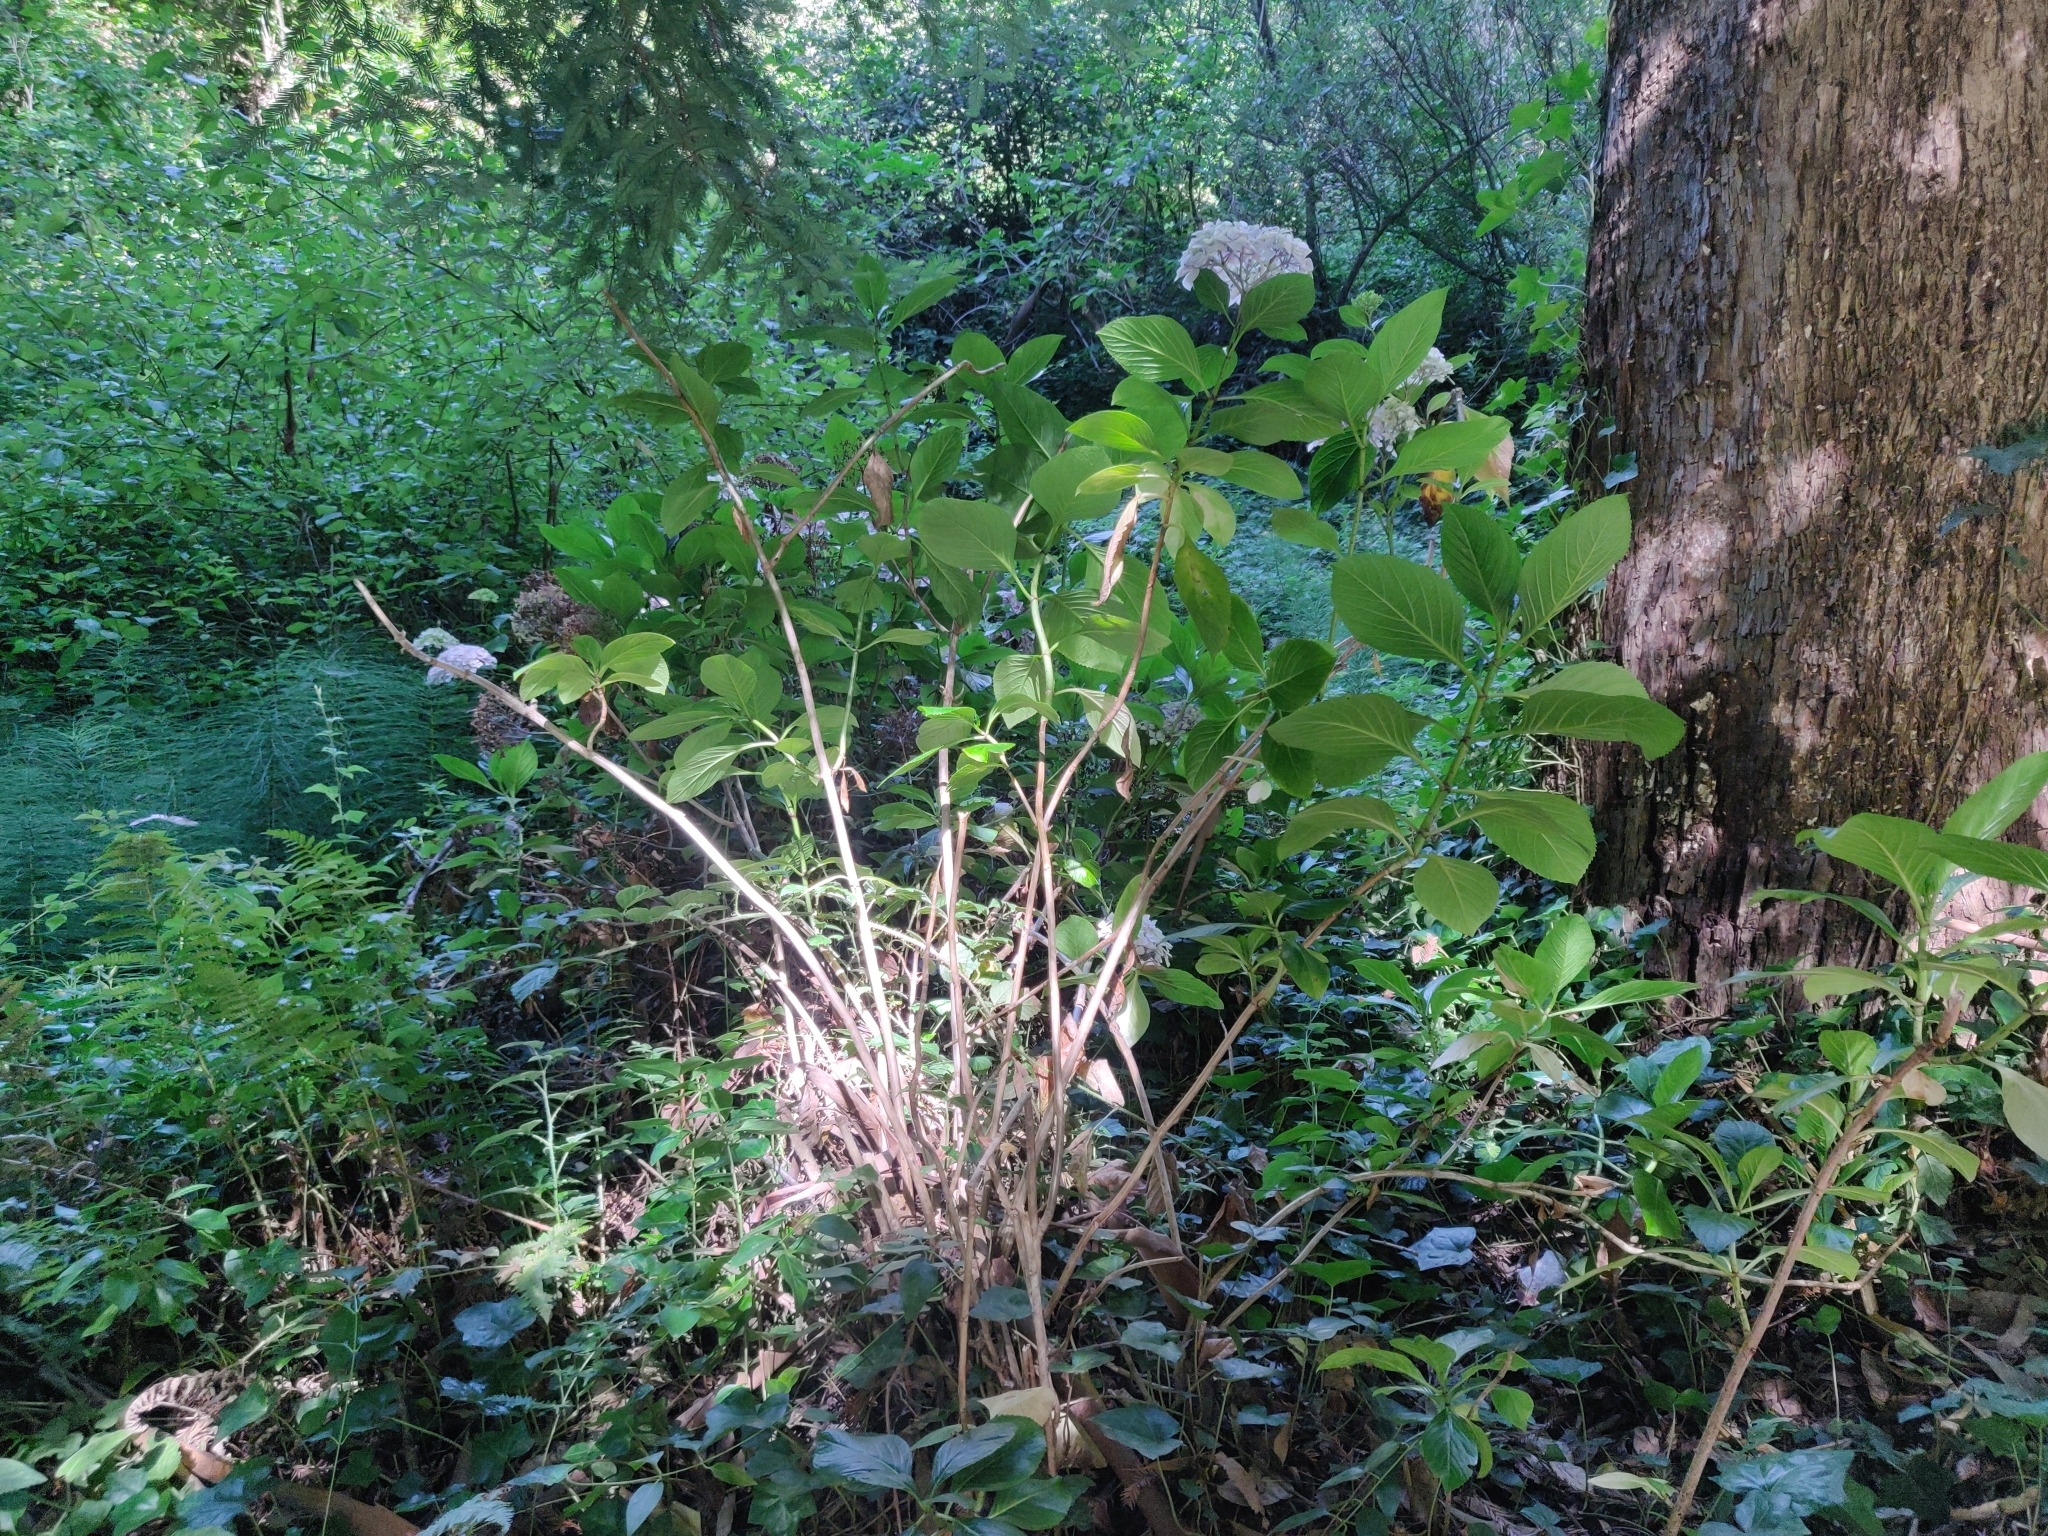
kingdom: Plantae
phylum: Tracheophyta
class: Magnoliopsida
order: Cornales
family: Hydrangeaceae
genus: Hydrangea
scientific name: Hydrangea macrophylla
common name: Hydrangea
